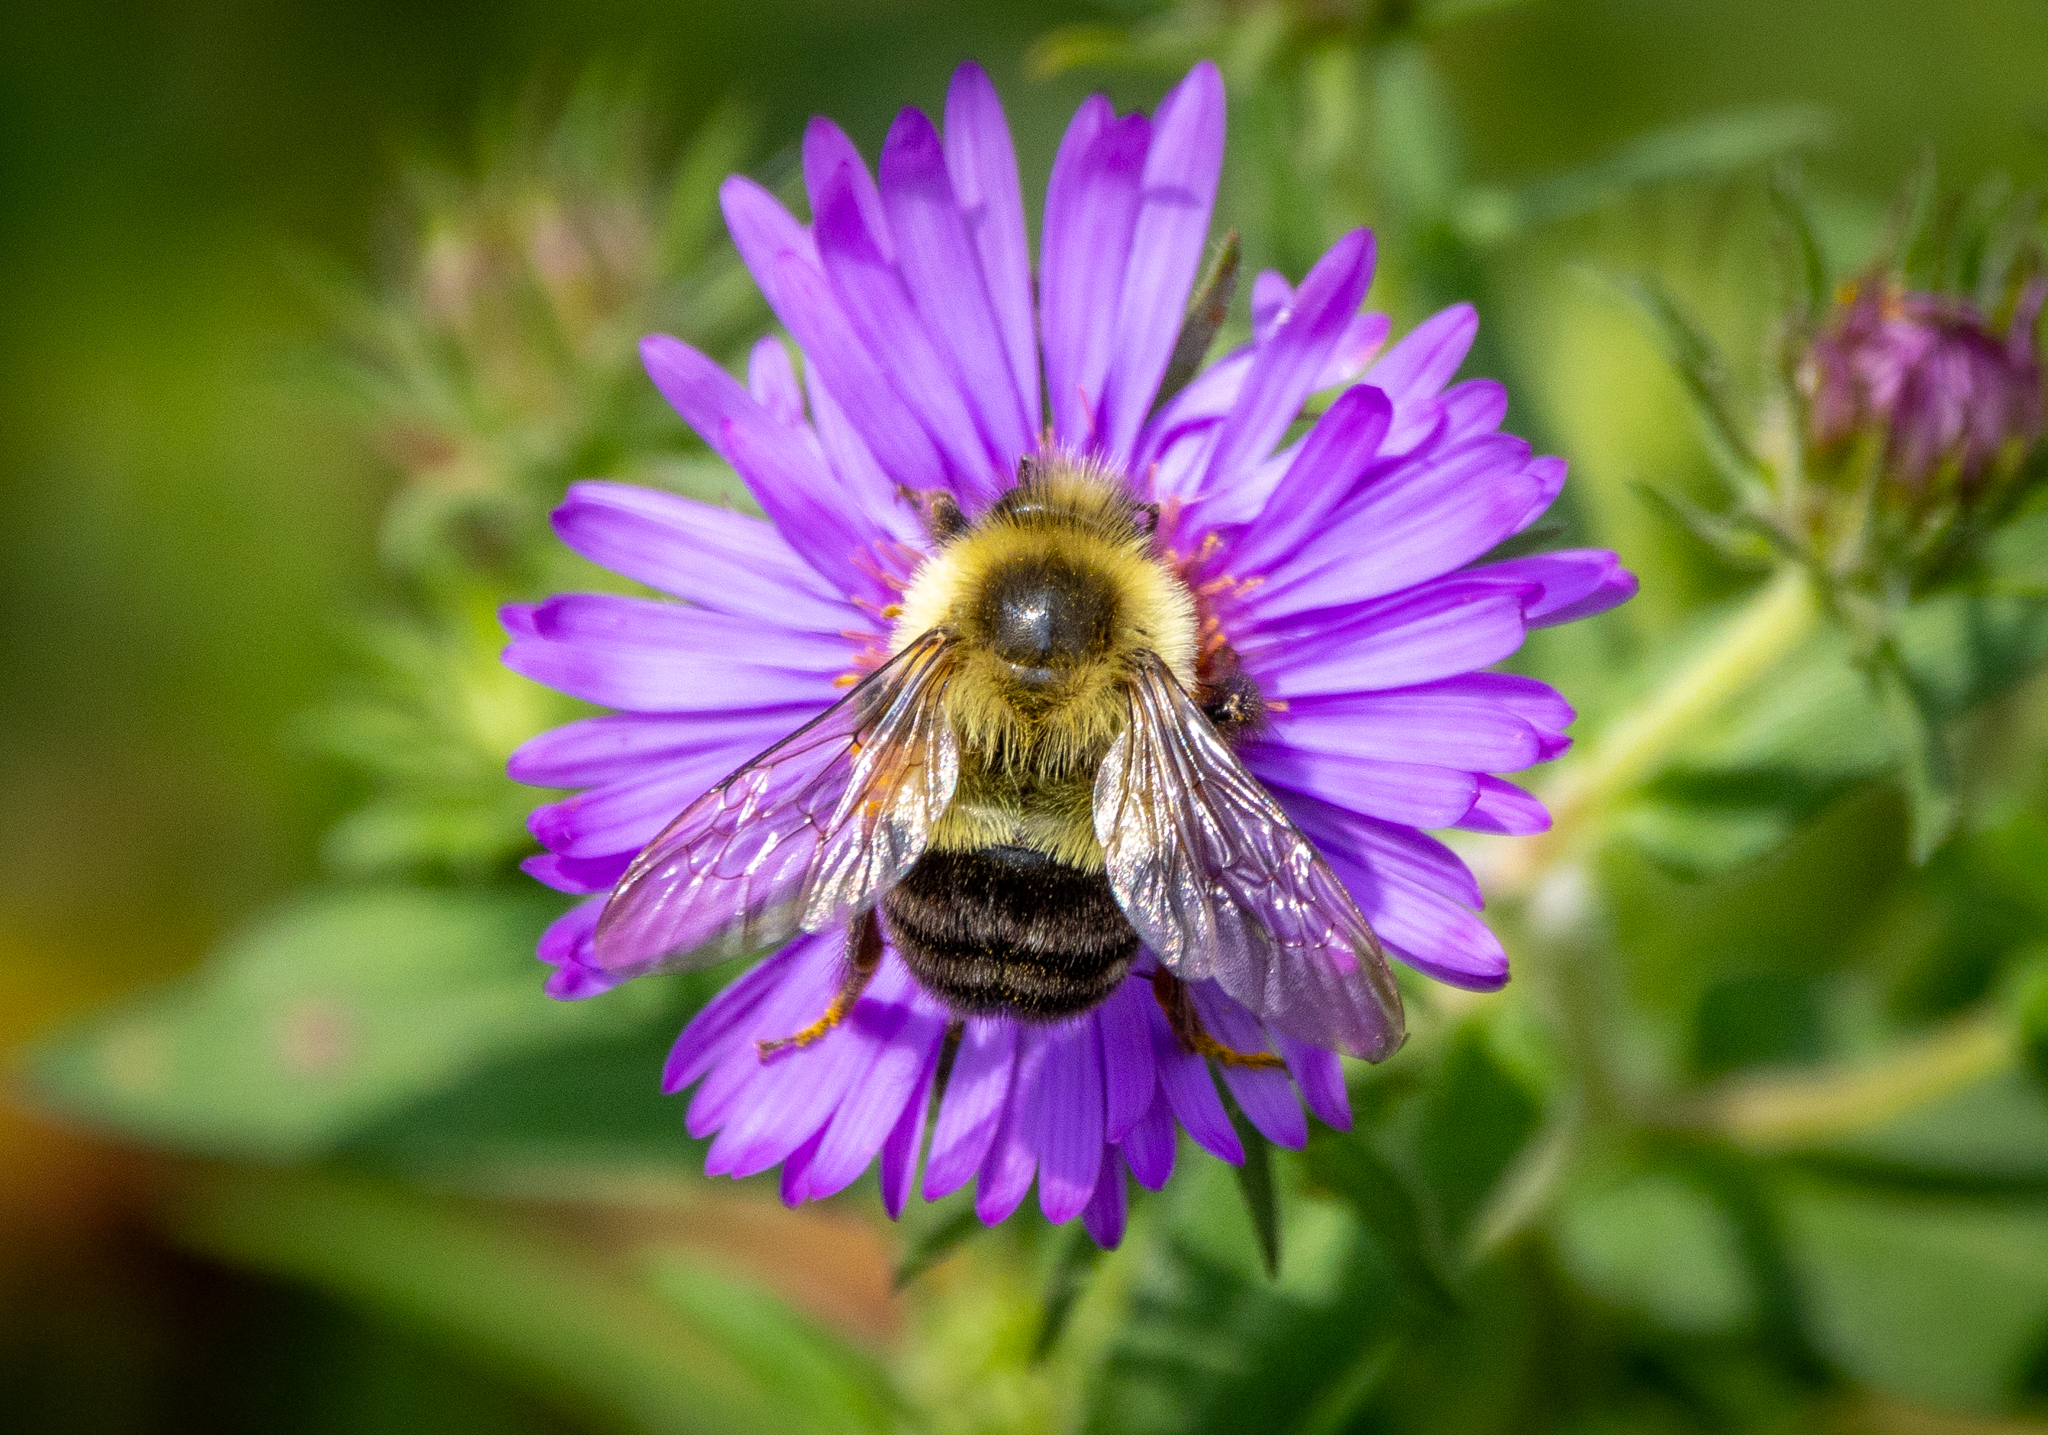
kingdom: Animalia
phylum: Arthropoda
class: Insecta
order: Hymenoptera
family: Apidae
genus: Bombus
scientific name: Bombus impatiens
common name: Common eastern bumble bee
